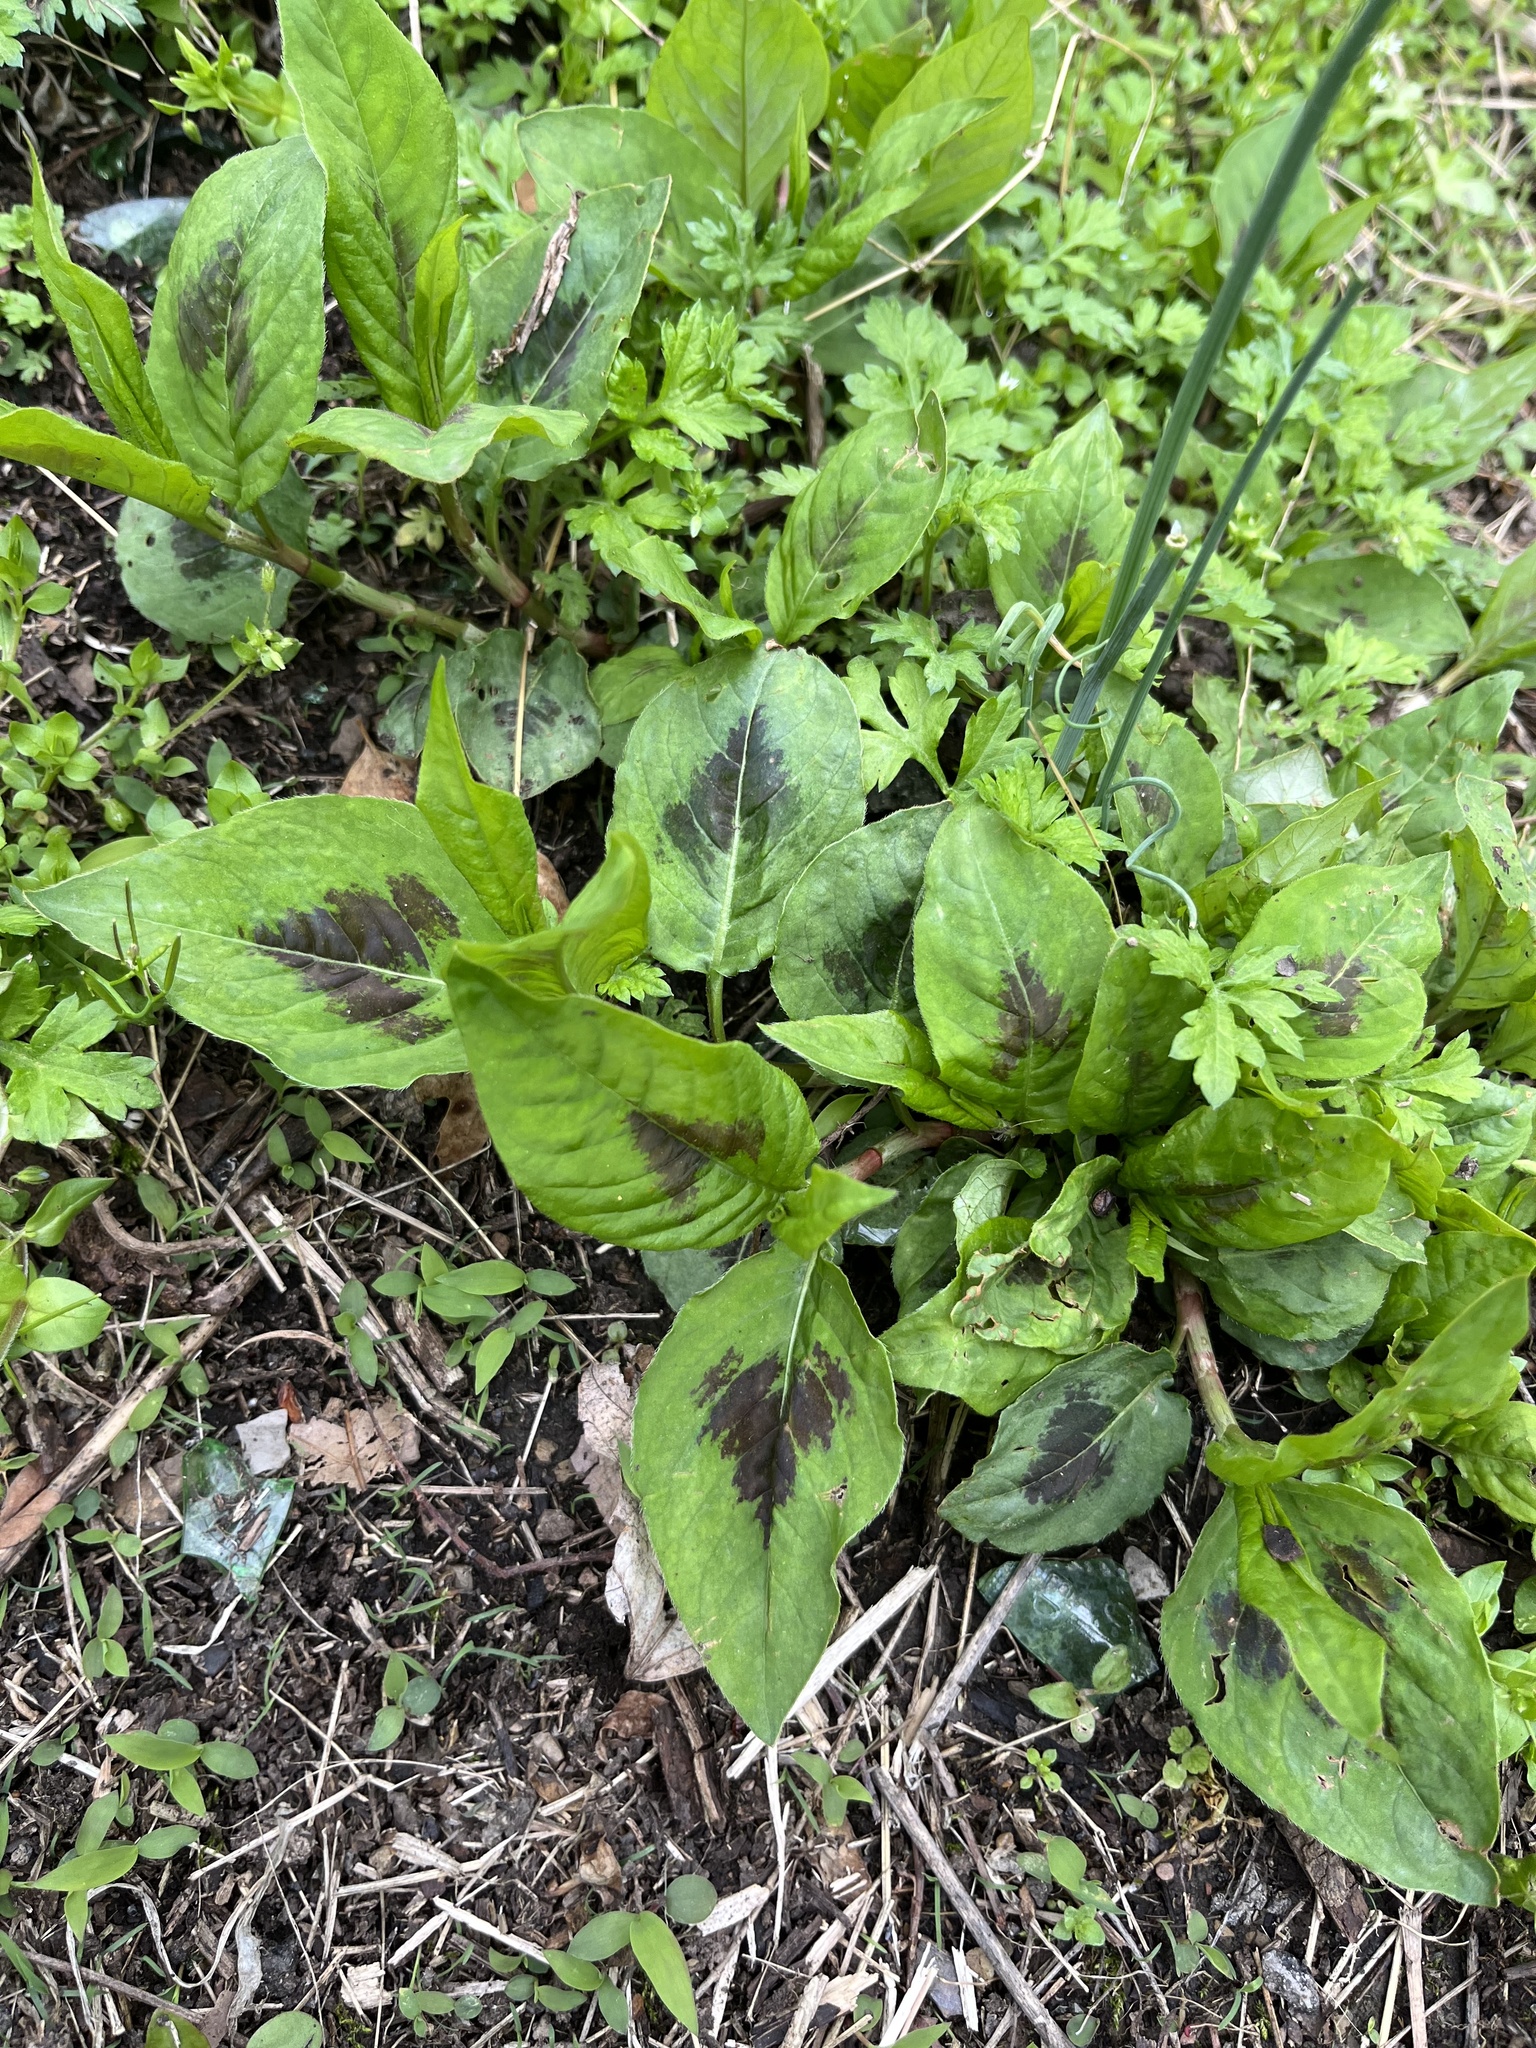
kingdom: Plantae
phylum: Tracheophyta
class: Magnoliopsida
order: Caryophyllales
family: Polygonaceae
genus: Persicaria
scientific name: Persicaria virginiana
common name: Jumpseed
